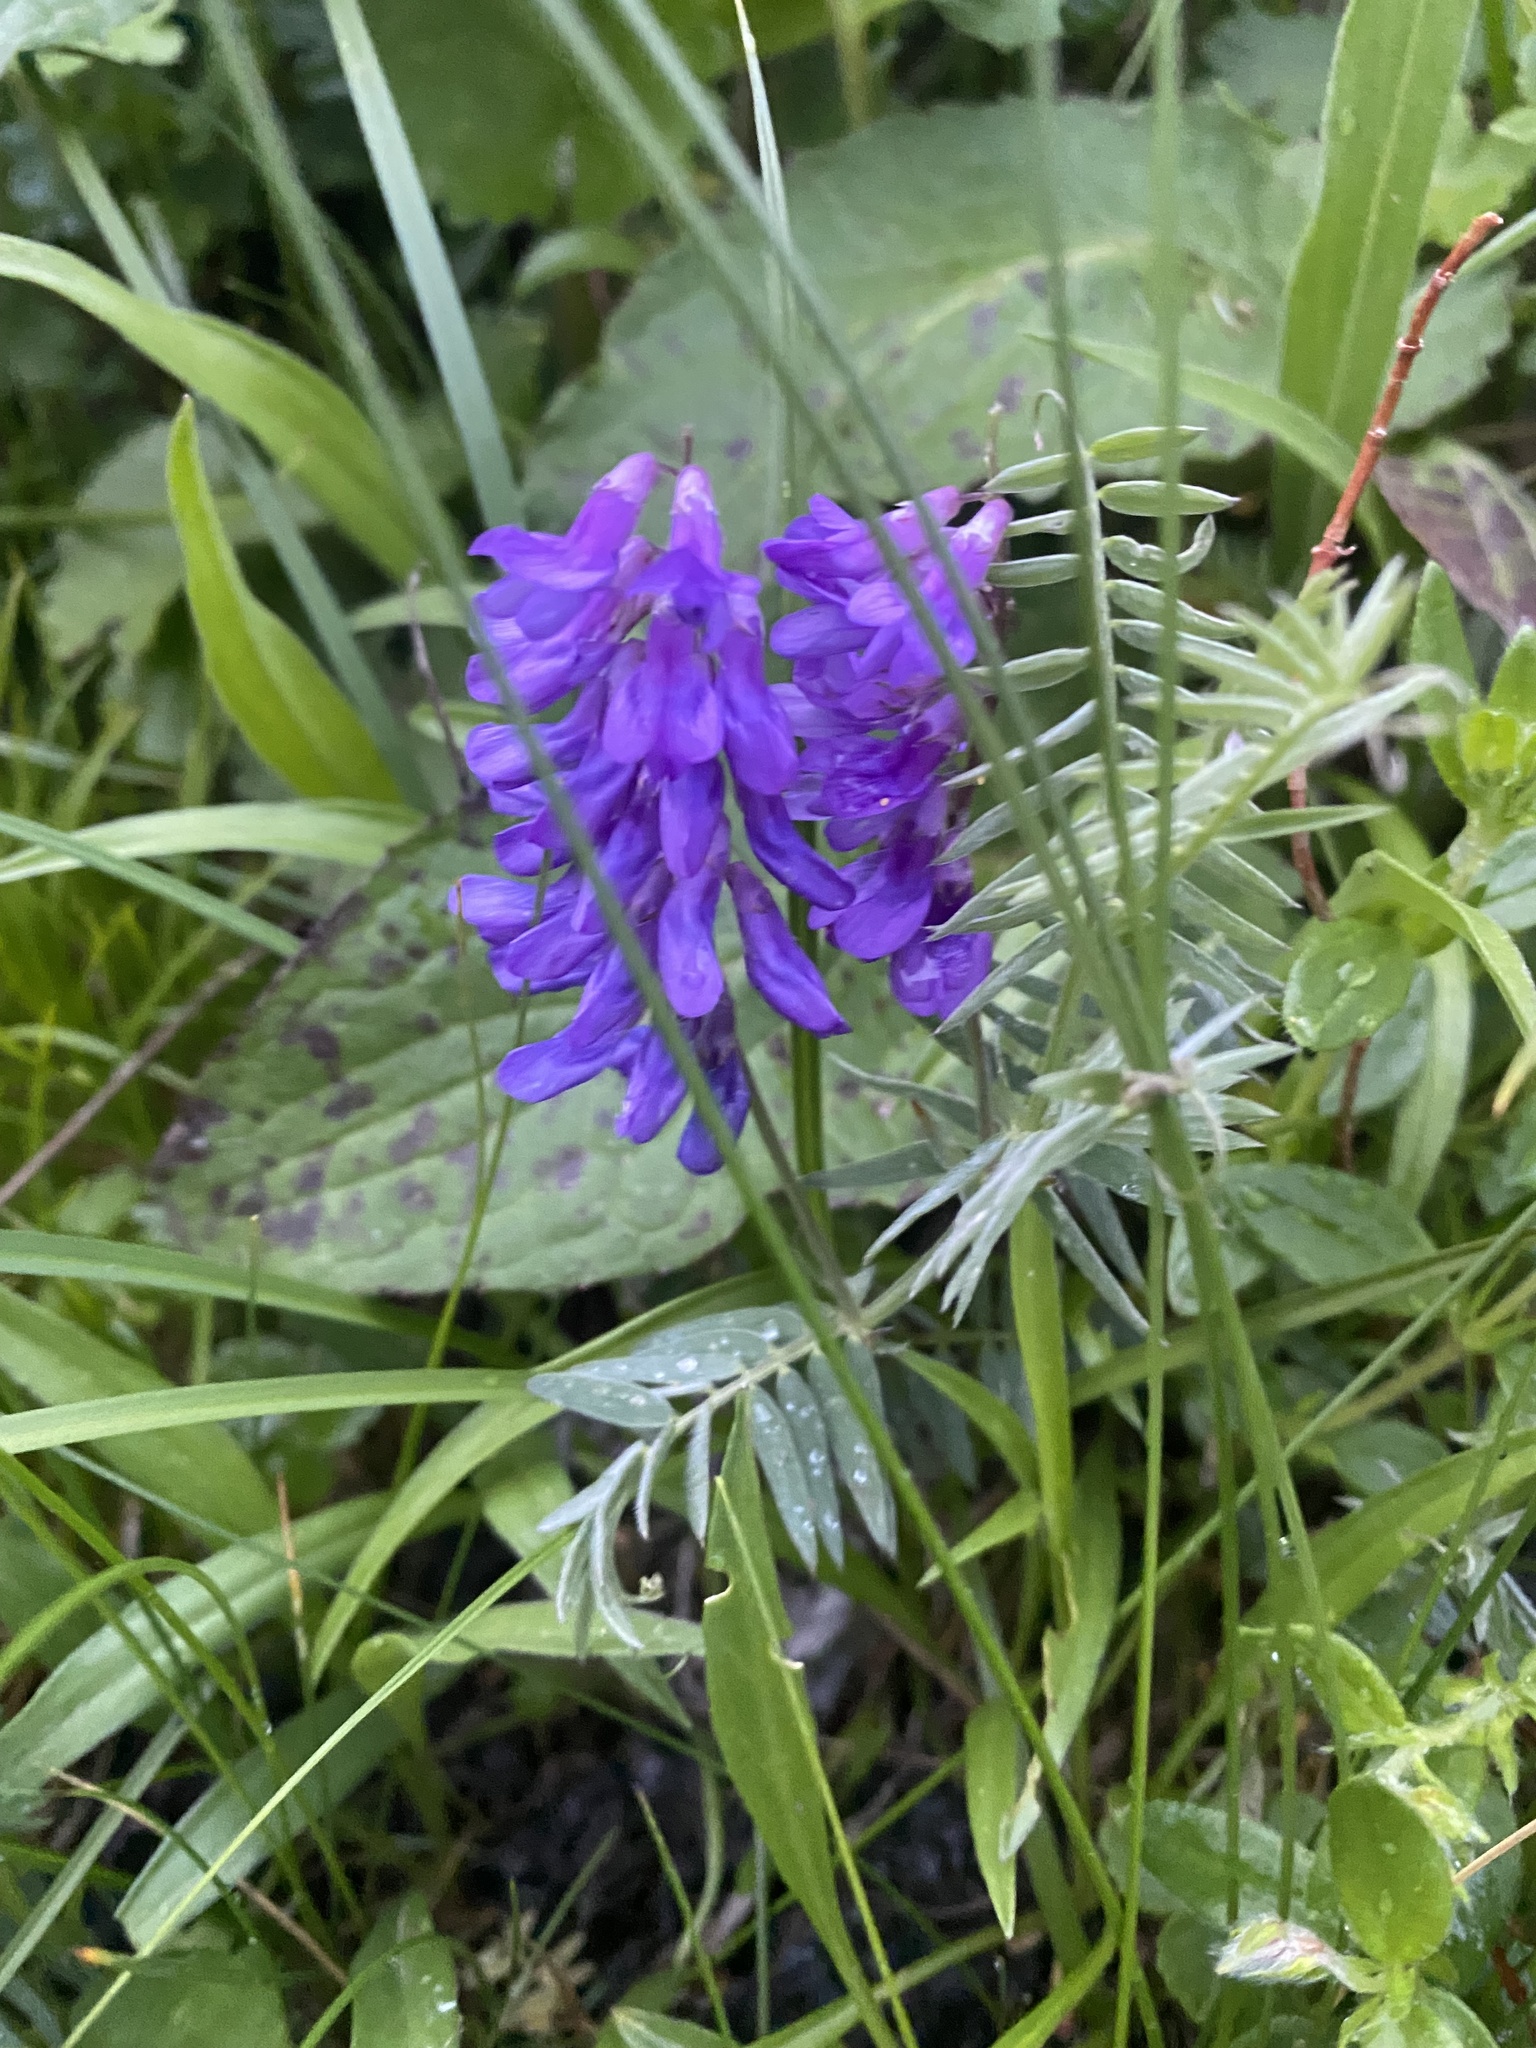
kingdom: Plantae
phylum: Tracheophyta
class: Magnoliopsida
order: Fabales
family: Fabaceae
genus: Vicia
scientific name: Vicia cracca
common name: Bird vetch
